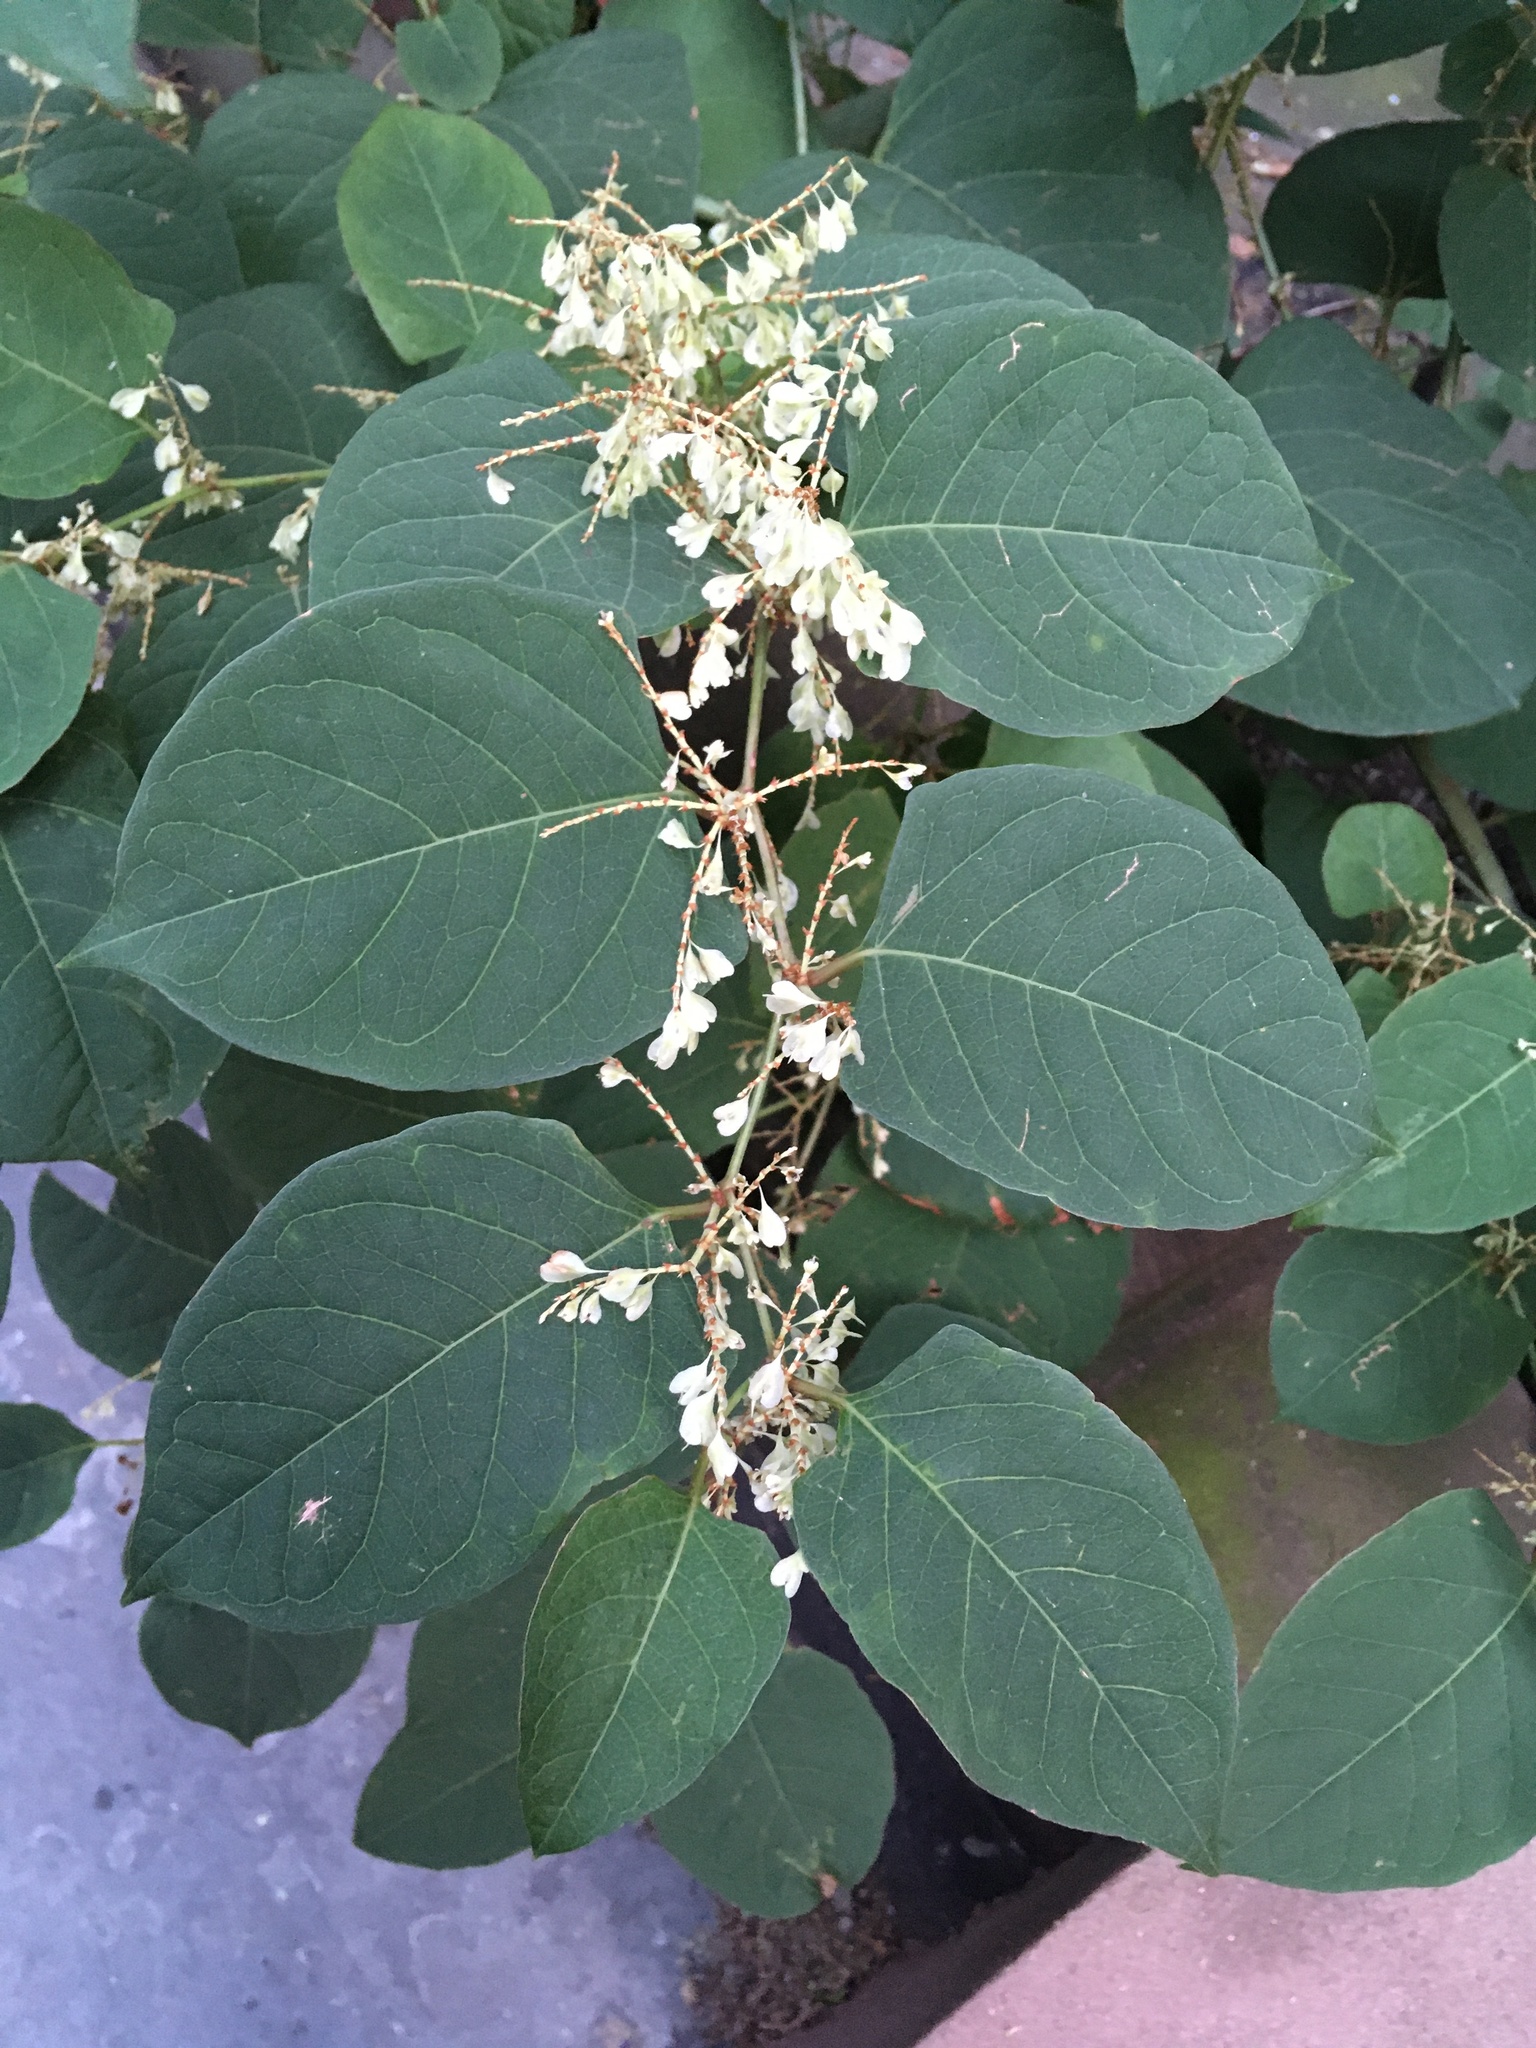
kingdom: Plantae
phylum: Tracheophyta
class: Magnoliopsida
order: Caryophyllales
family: Polygonaceae
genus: Reynoutria
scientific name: Reynoutria japonica
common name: Japanese knotweed
